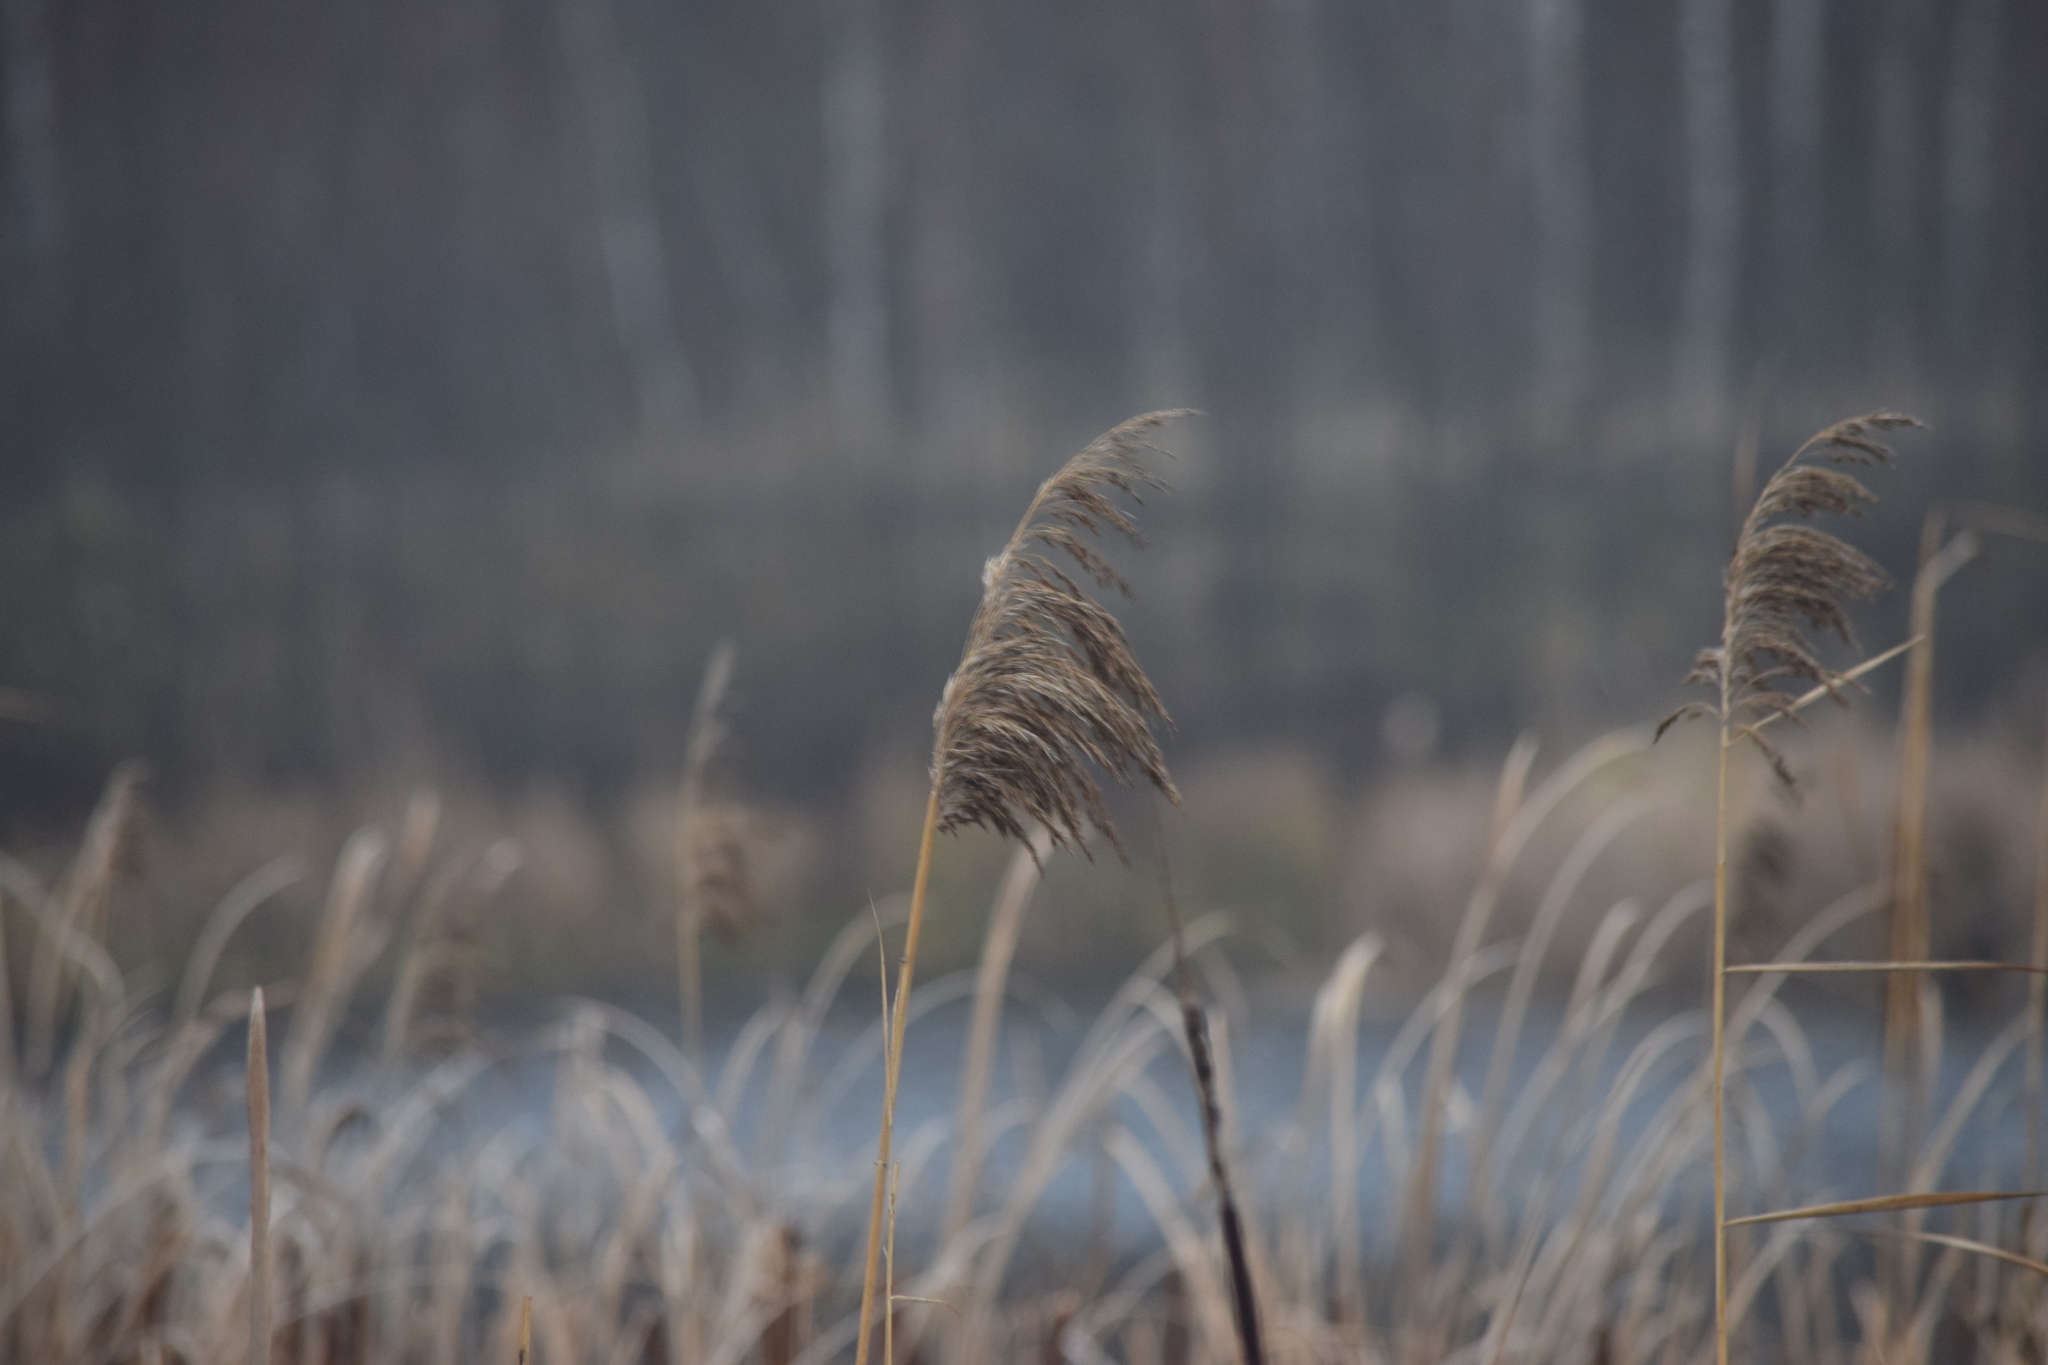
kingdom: Plantae
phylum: Tracheophyta
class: Liliopsida
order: Poales
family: Poaceae
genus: Phragmites
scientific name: Phragmites australis
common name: Common reed
